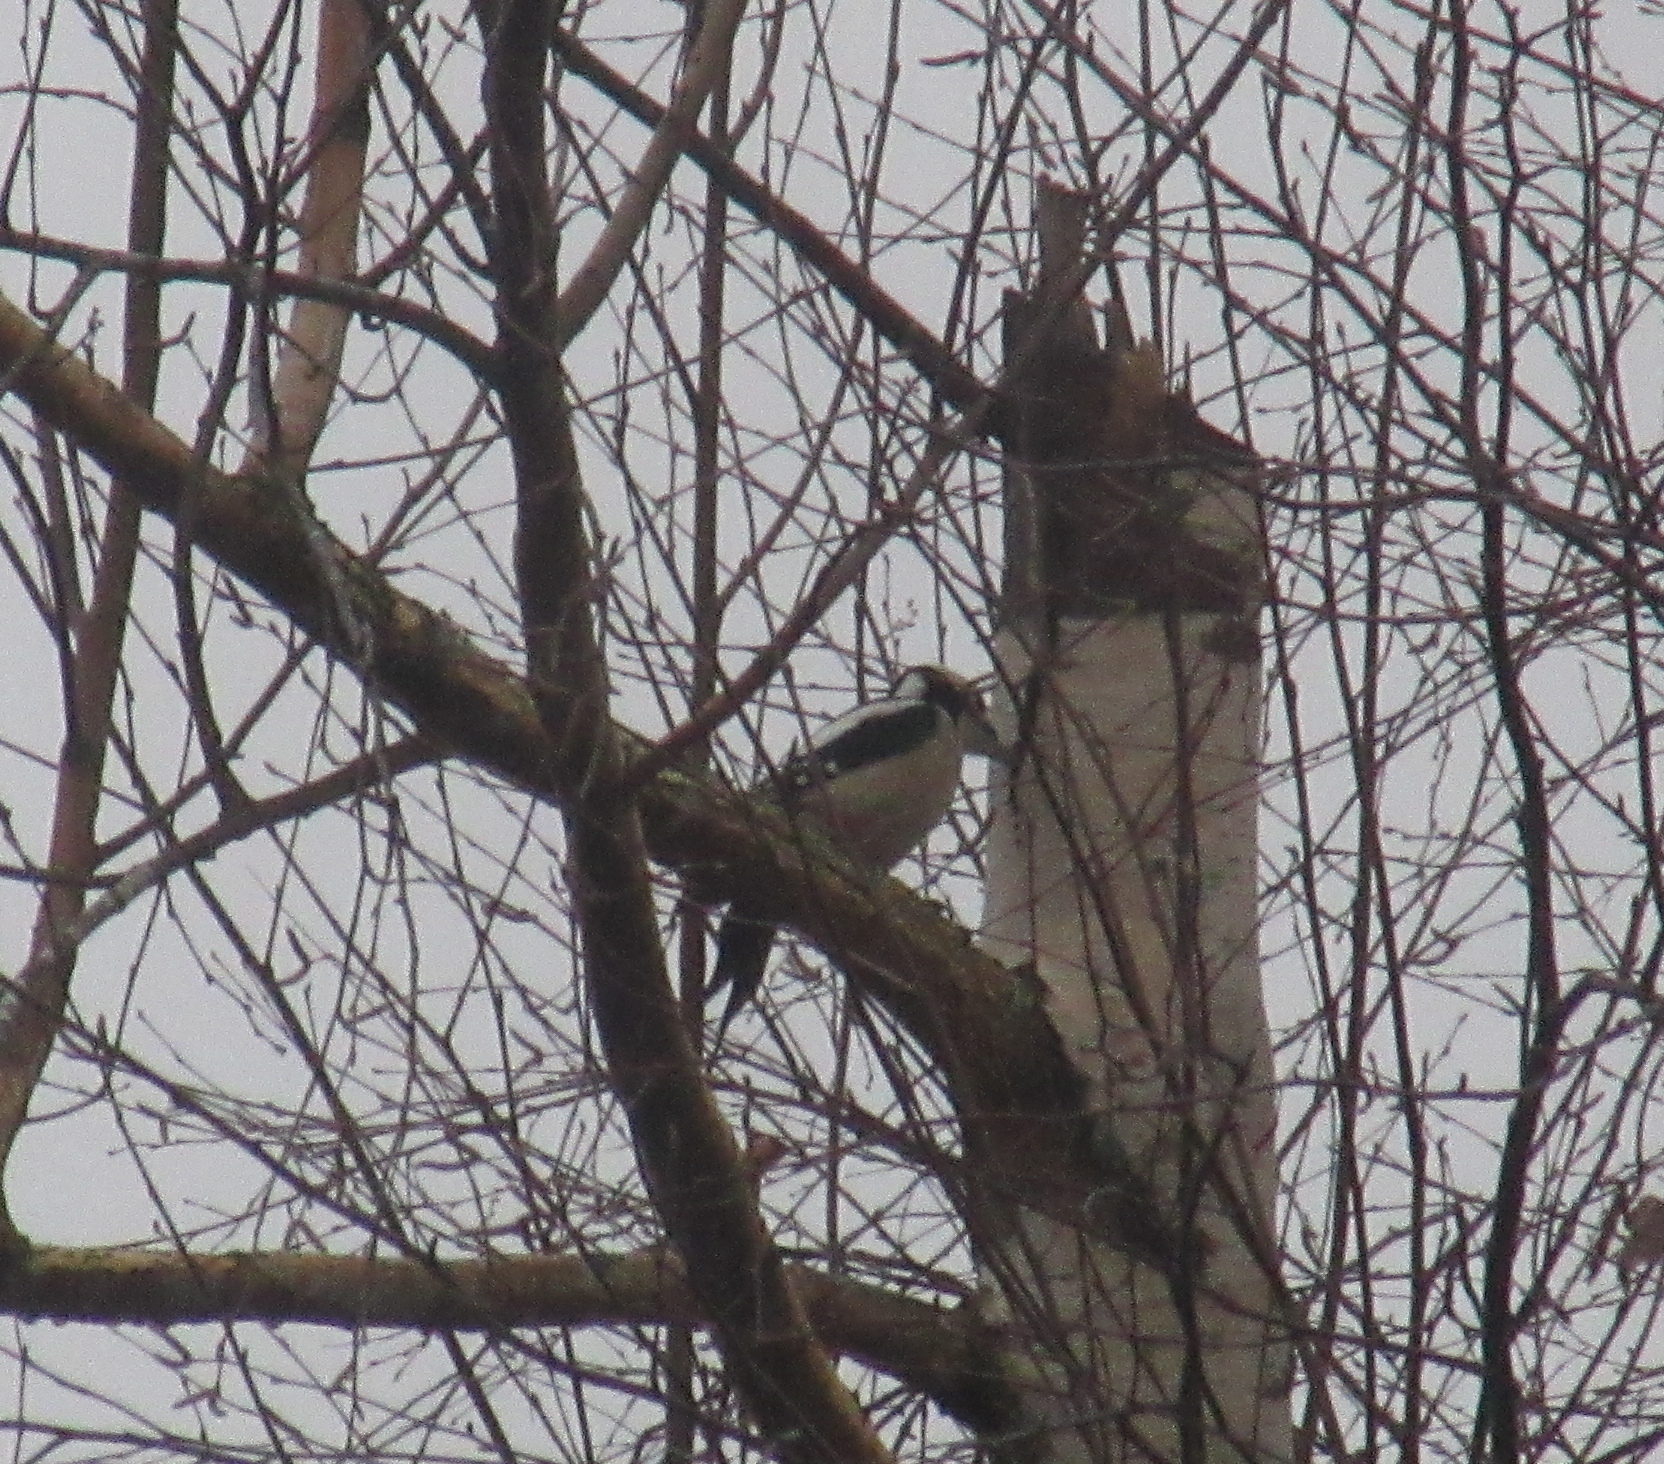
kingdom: Animalia
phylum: Chordata
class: Aves
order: Piciformes
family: Picidae
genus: Dendrocopos
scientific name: Dendrocopos major
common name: Great spotted woodpecker
